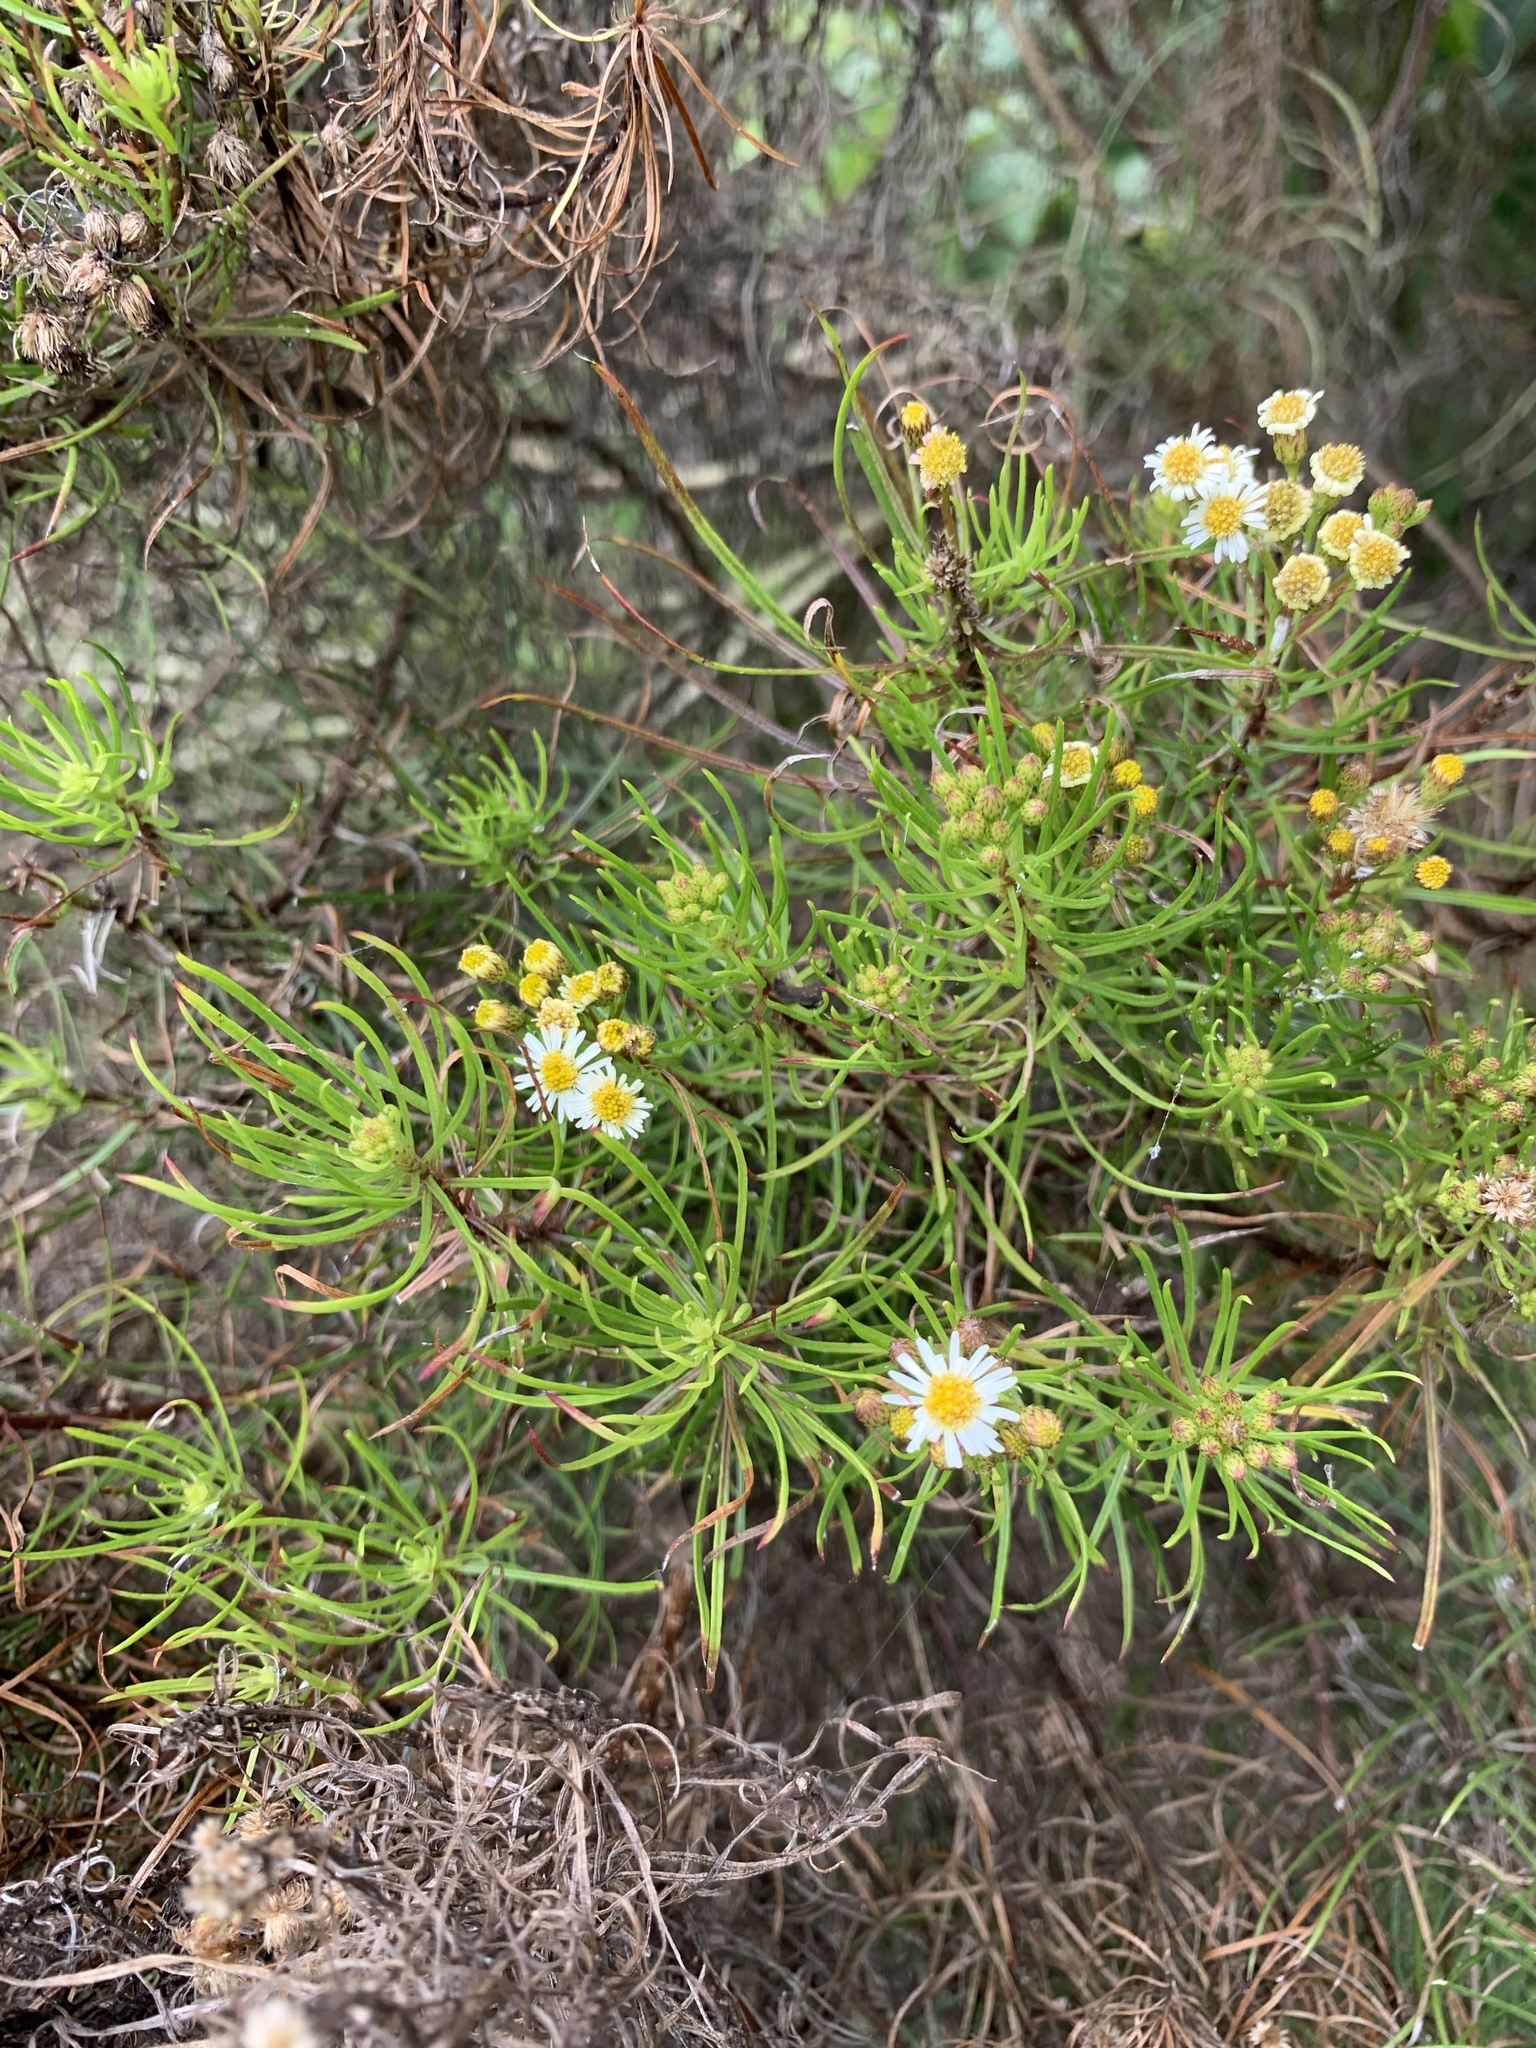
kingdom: Plantae
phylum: Tracheophyta
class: Magnoliopsida
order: Asterales
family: Asteraceae
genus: Erigeron
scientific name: Erigeron tenuifolius
